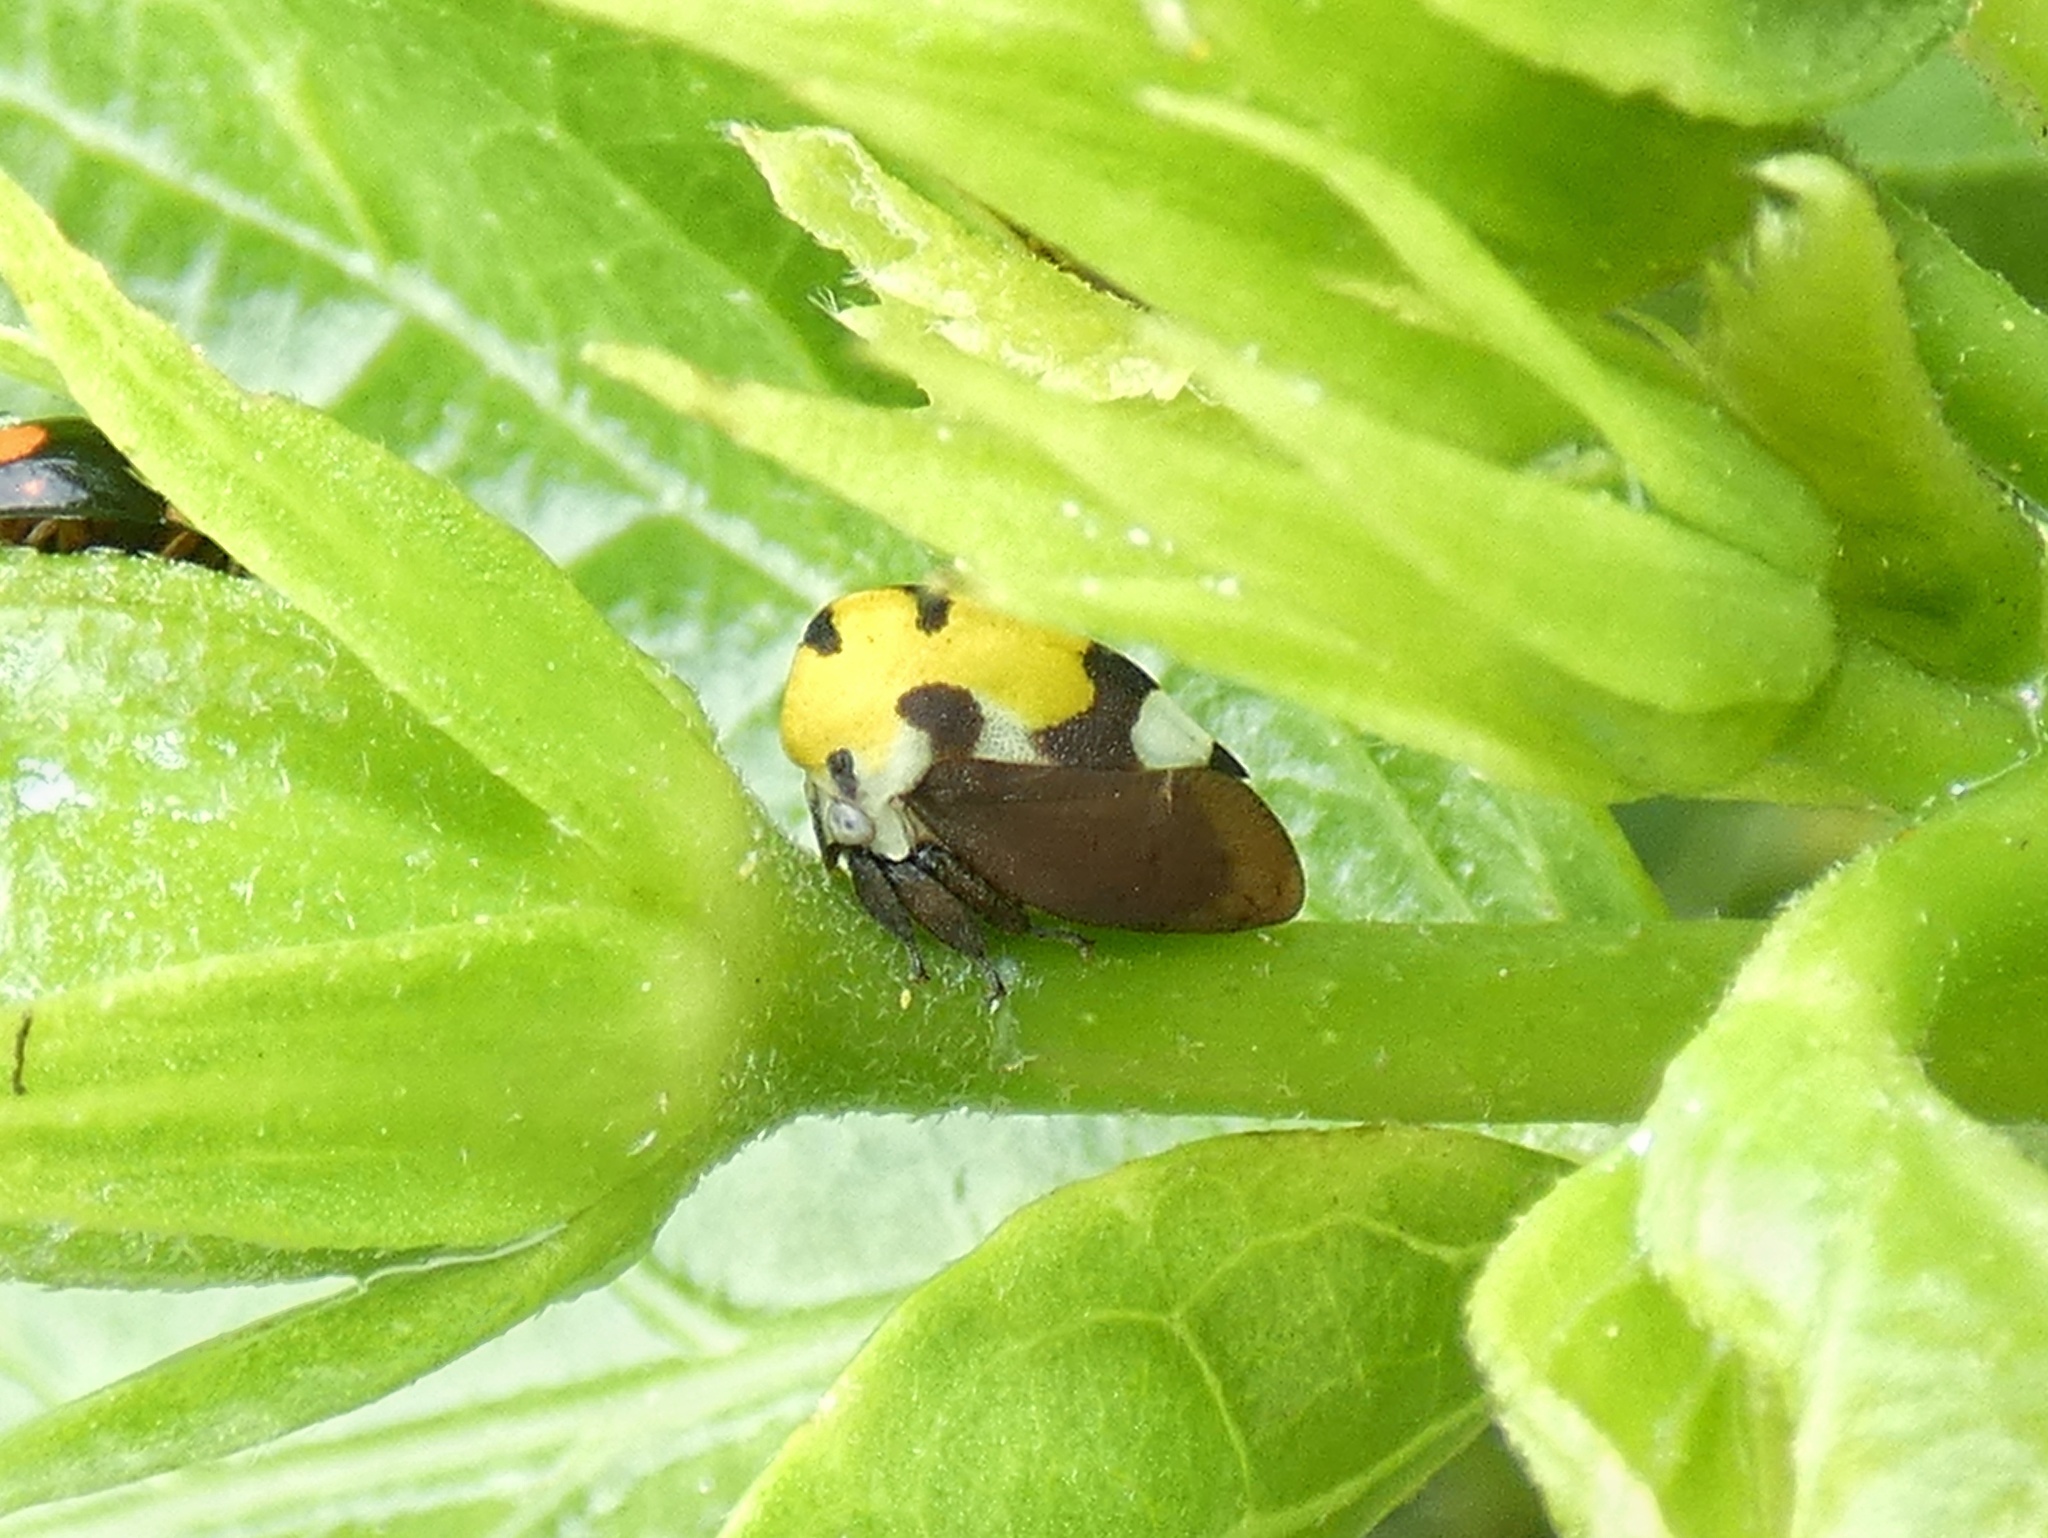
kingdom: Animalia
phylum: Arthropoda
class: Insecta
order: Hemiptera
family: Membracidae
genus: Membracis
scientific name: Membracis mexicana
